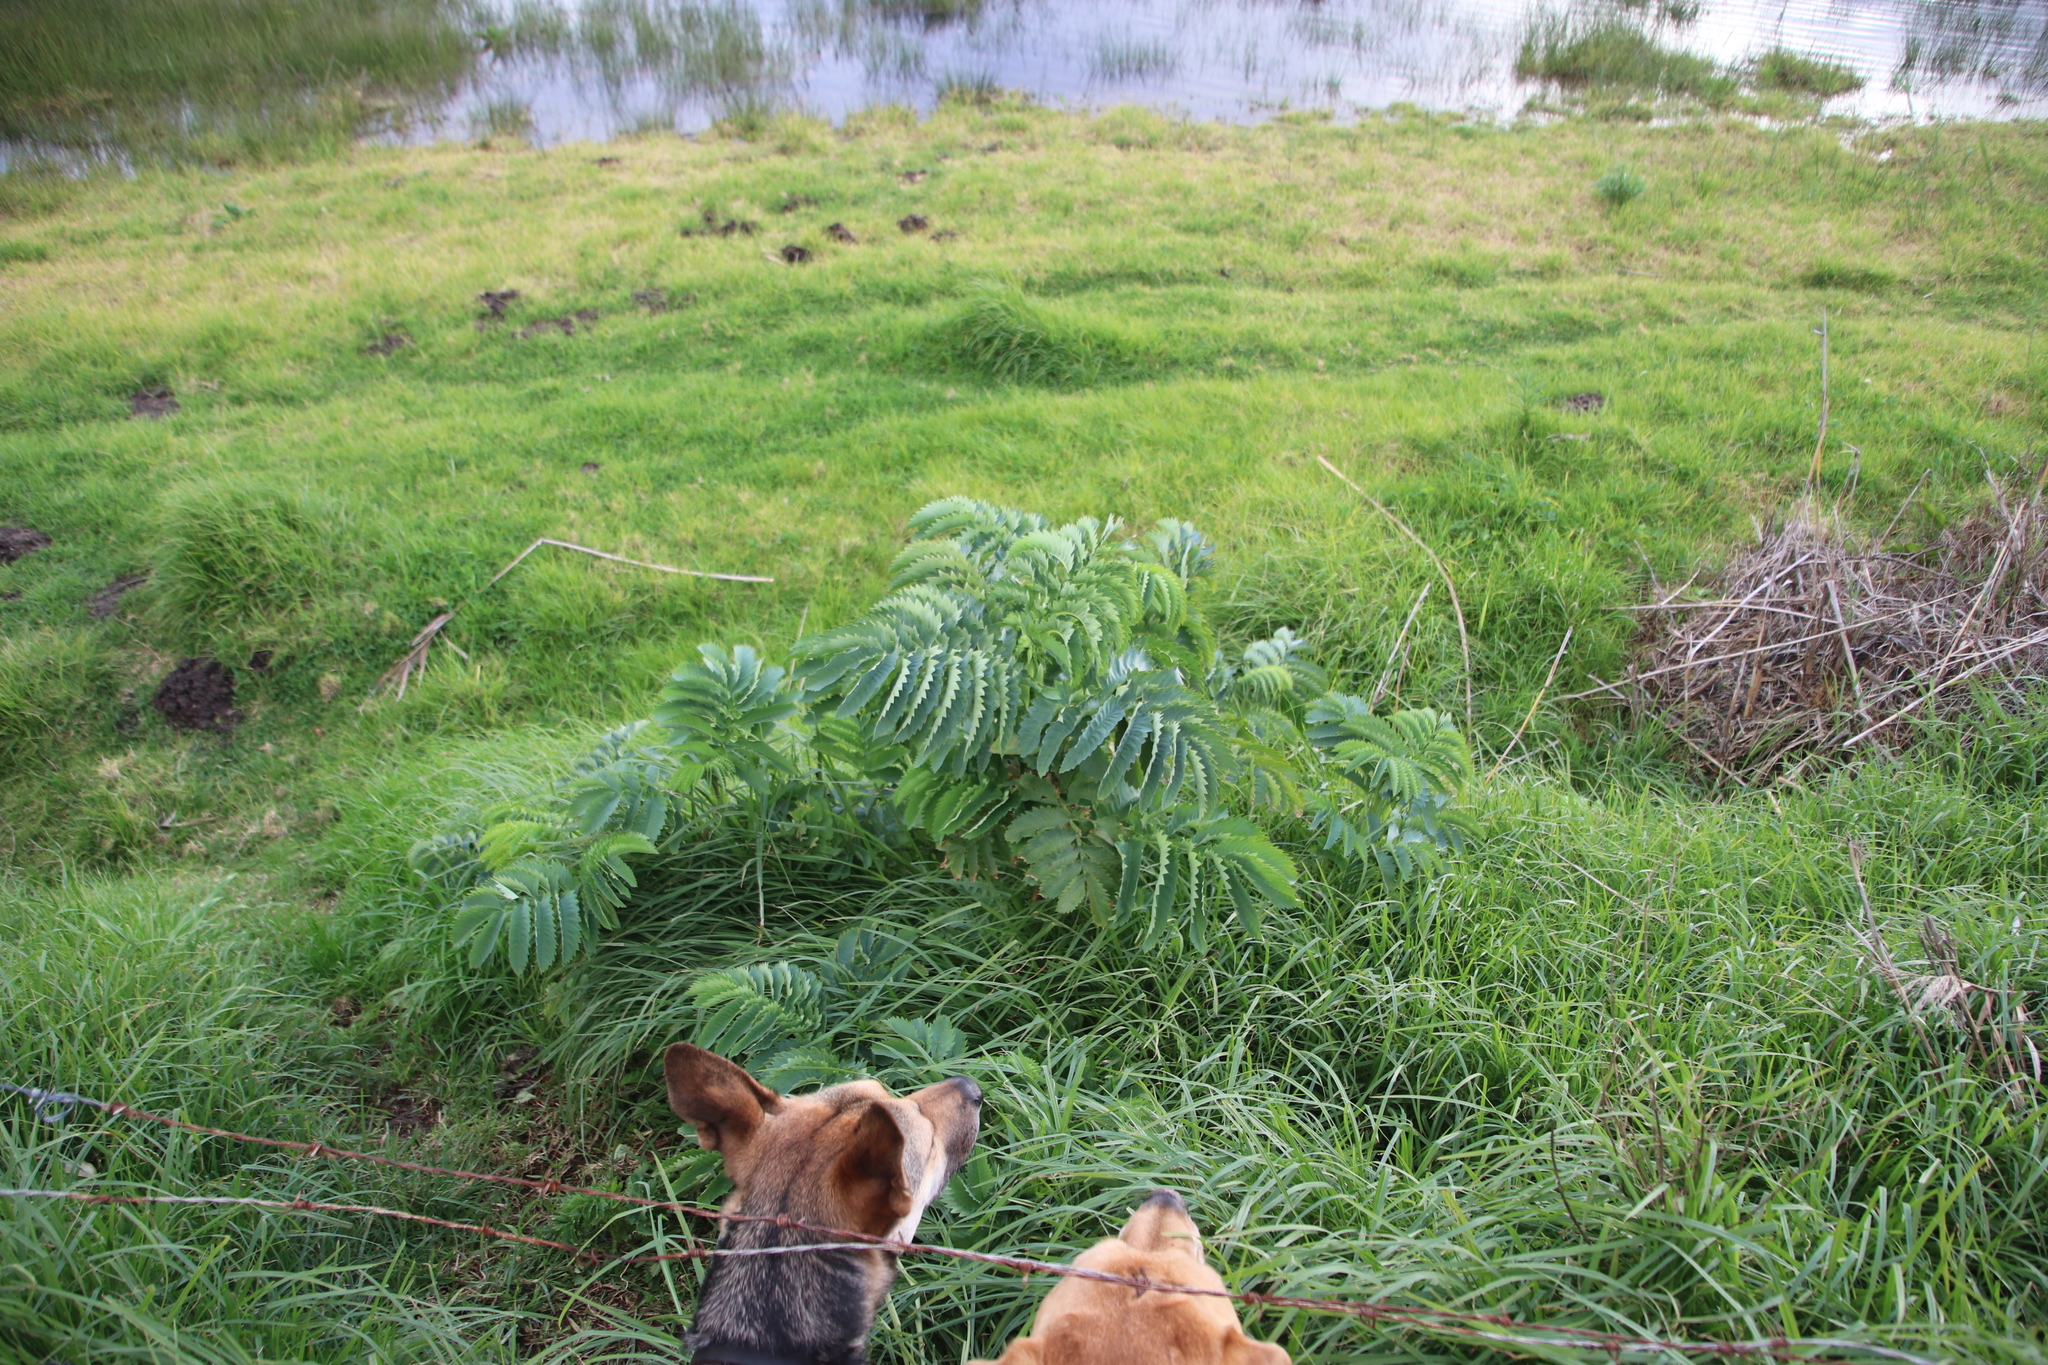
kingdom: Plantae
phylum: Tracheophyta
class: Magnoliopsida
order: Geraniales
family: Melianthaceae
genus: Melianthus
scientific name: Melianthus major
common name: Honey-flower
